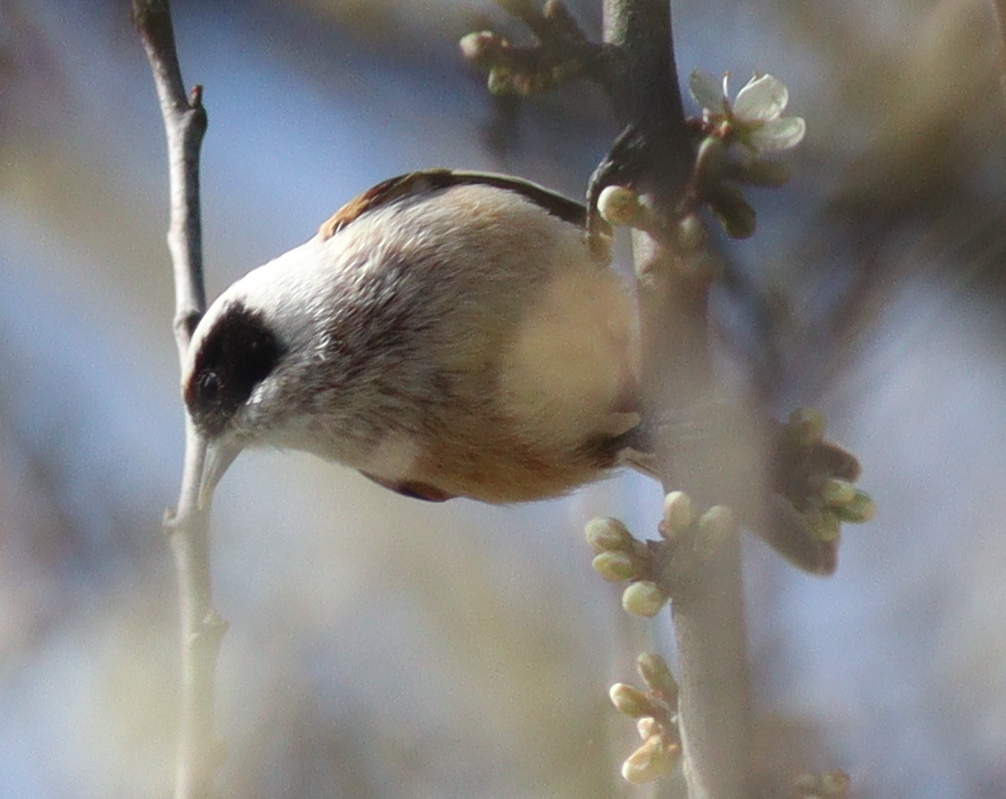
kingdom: Animalia
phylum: Chordata
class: Aves
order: Passeriformes
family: Remizidae
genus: Remiz
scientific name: Remiz pendulinus
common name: Eurasian penduline tit
